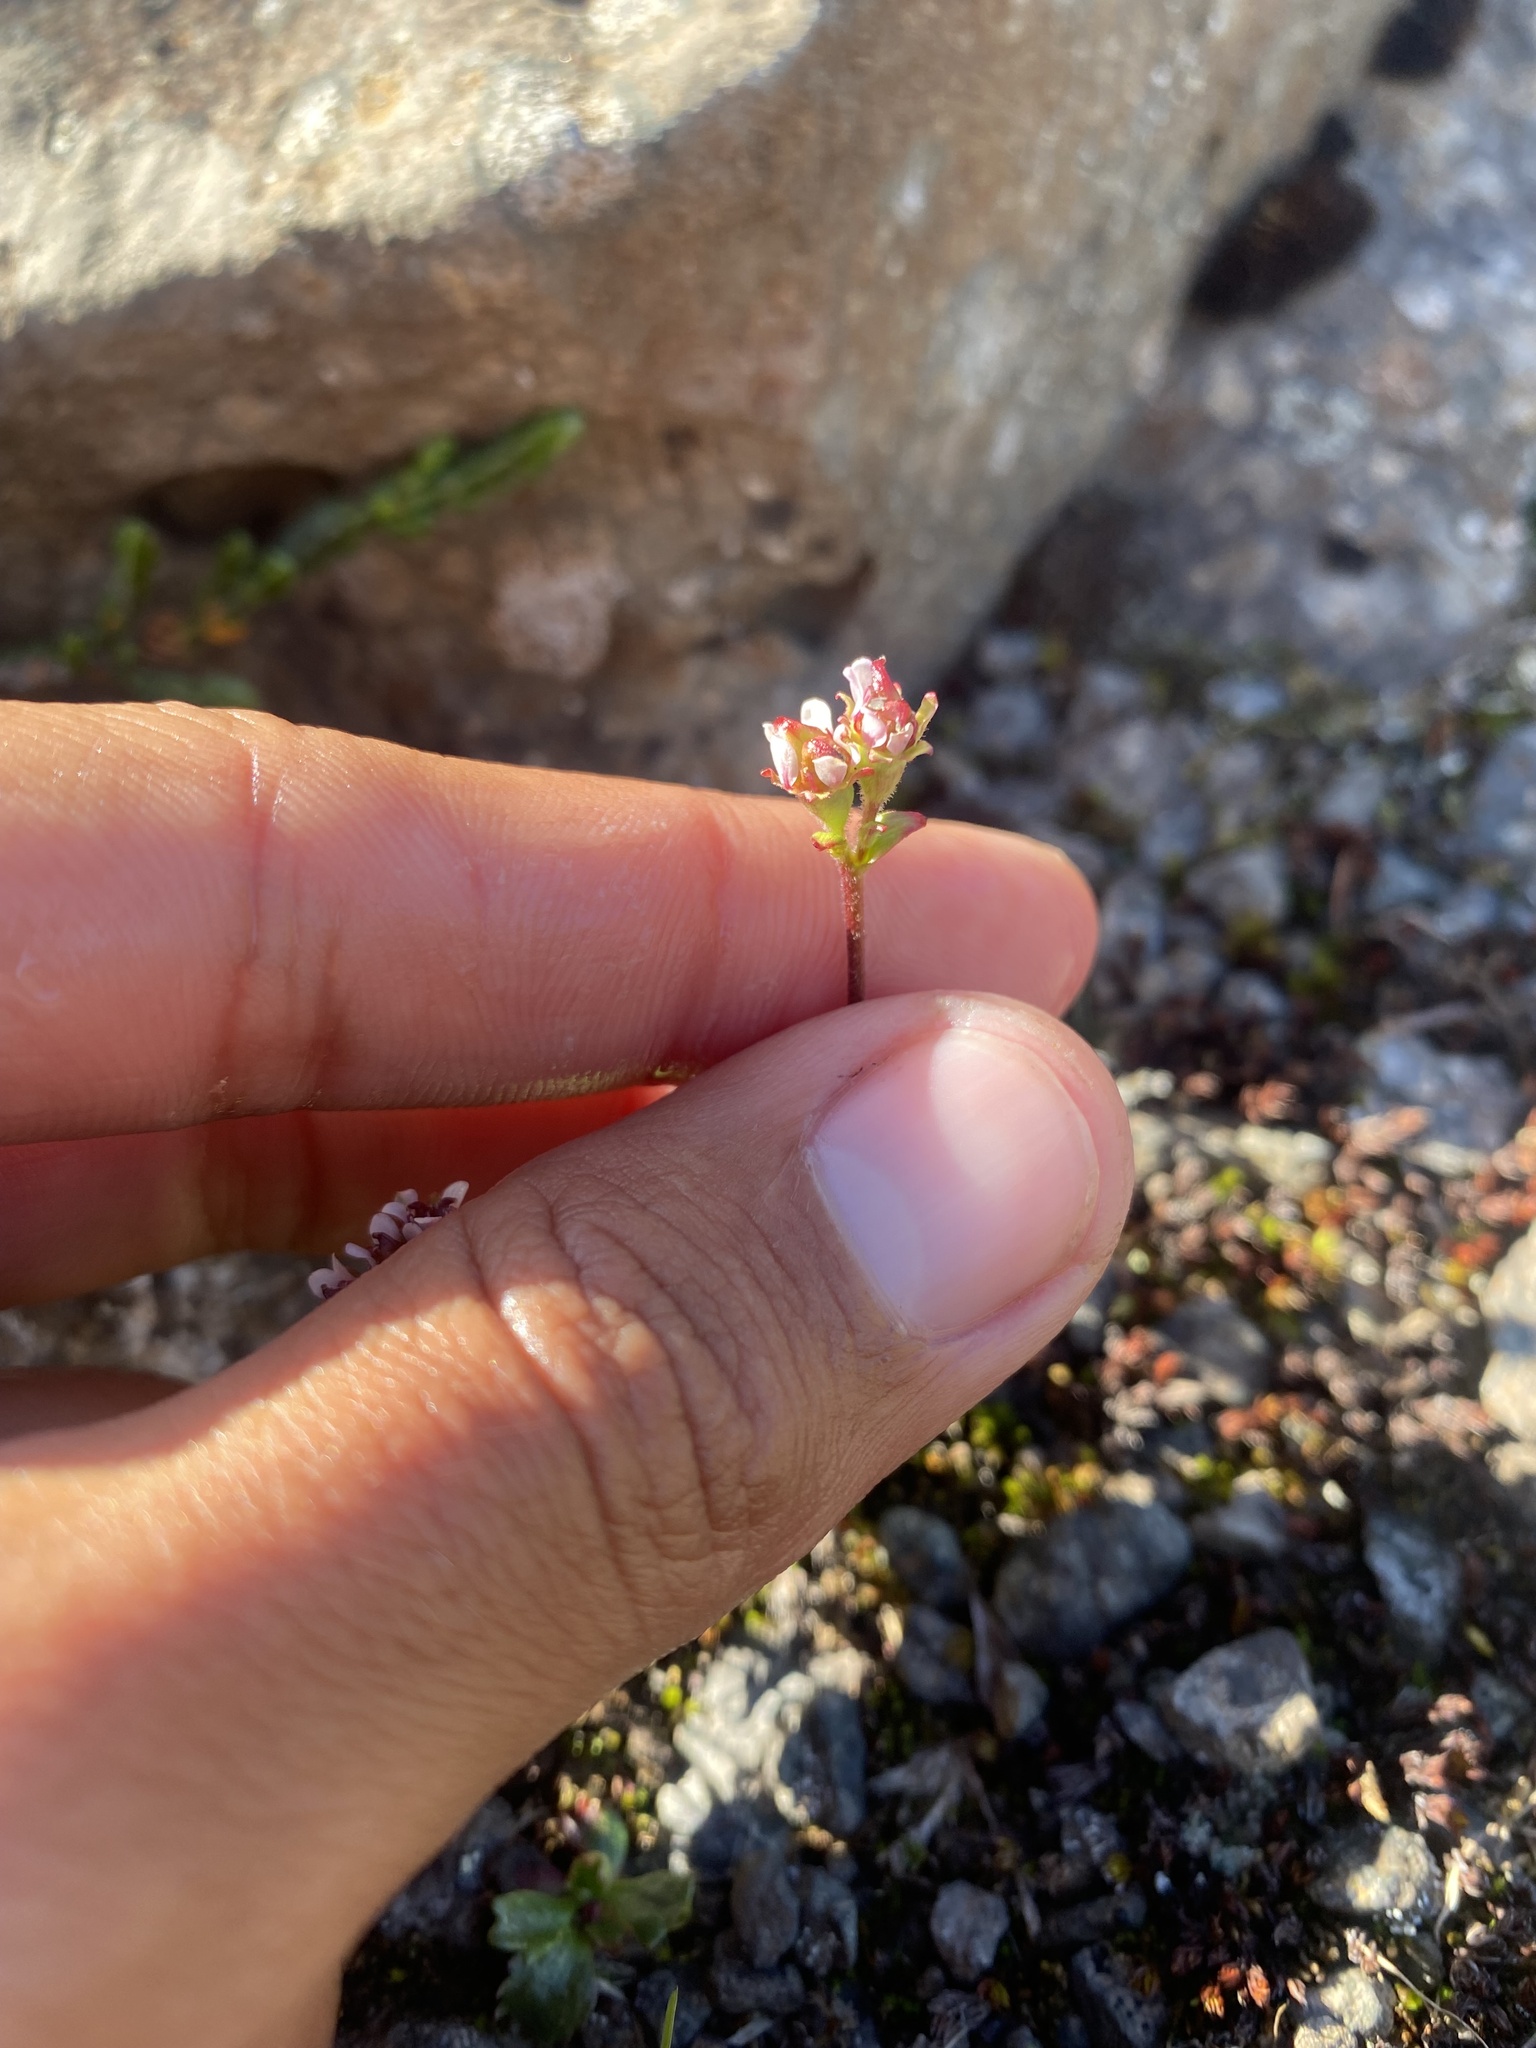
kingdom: Plantae
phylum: Tracheophyta
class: Magnoliopsida
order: Saxifragales
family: Saxifragaceae
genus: Micranthes
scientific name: Micranthes nivalis
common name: Alpine saxifrage
